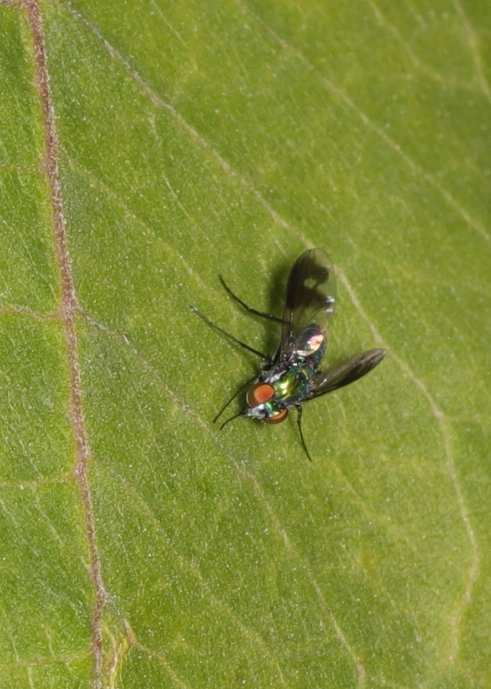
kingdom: Animalia
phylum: Arthropoda
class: Insecta
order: Diptera
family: Dolichopodidae
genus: Condylostylus
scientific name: Condylostylus patibulatus
